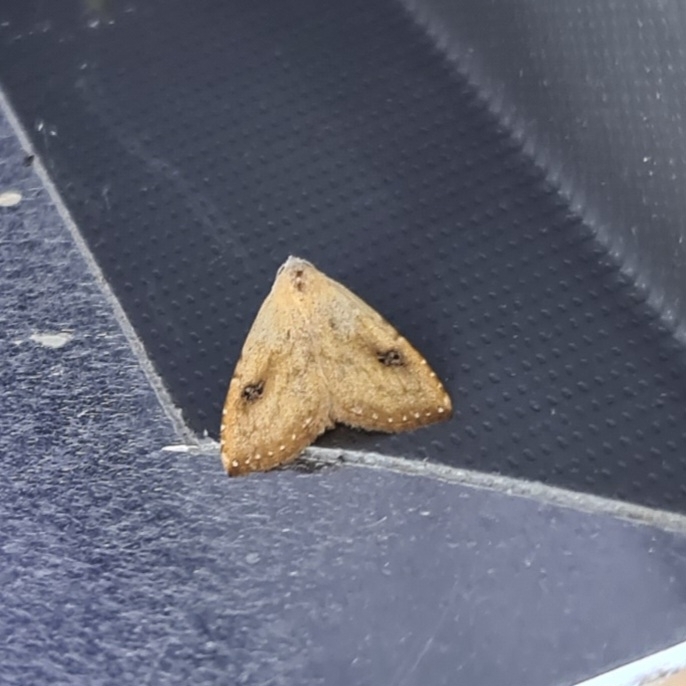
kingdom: Animalia
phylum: Arthropoda
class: Insecta
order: Lepidoptera
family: Erebidae
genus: Rivula
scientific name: Rivula sericealis
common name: Straw dot
